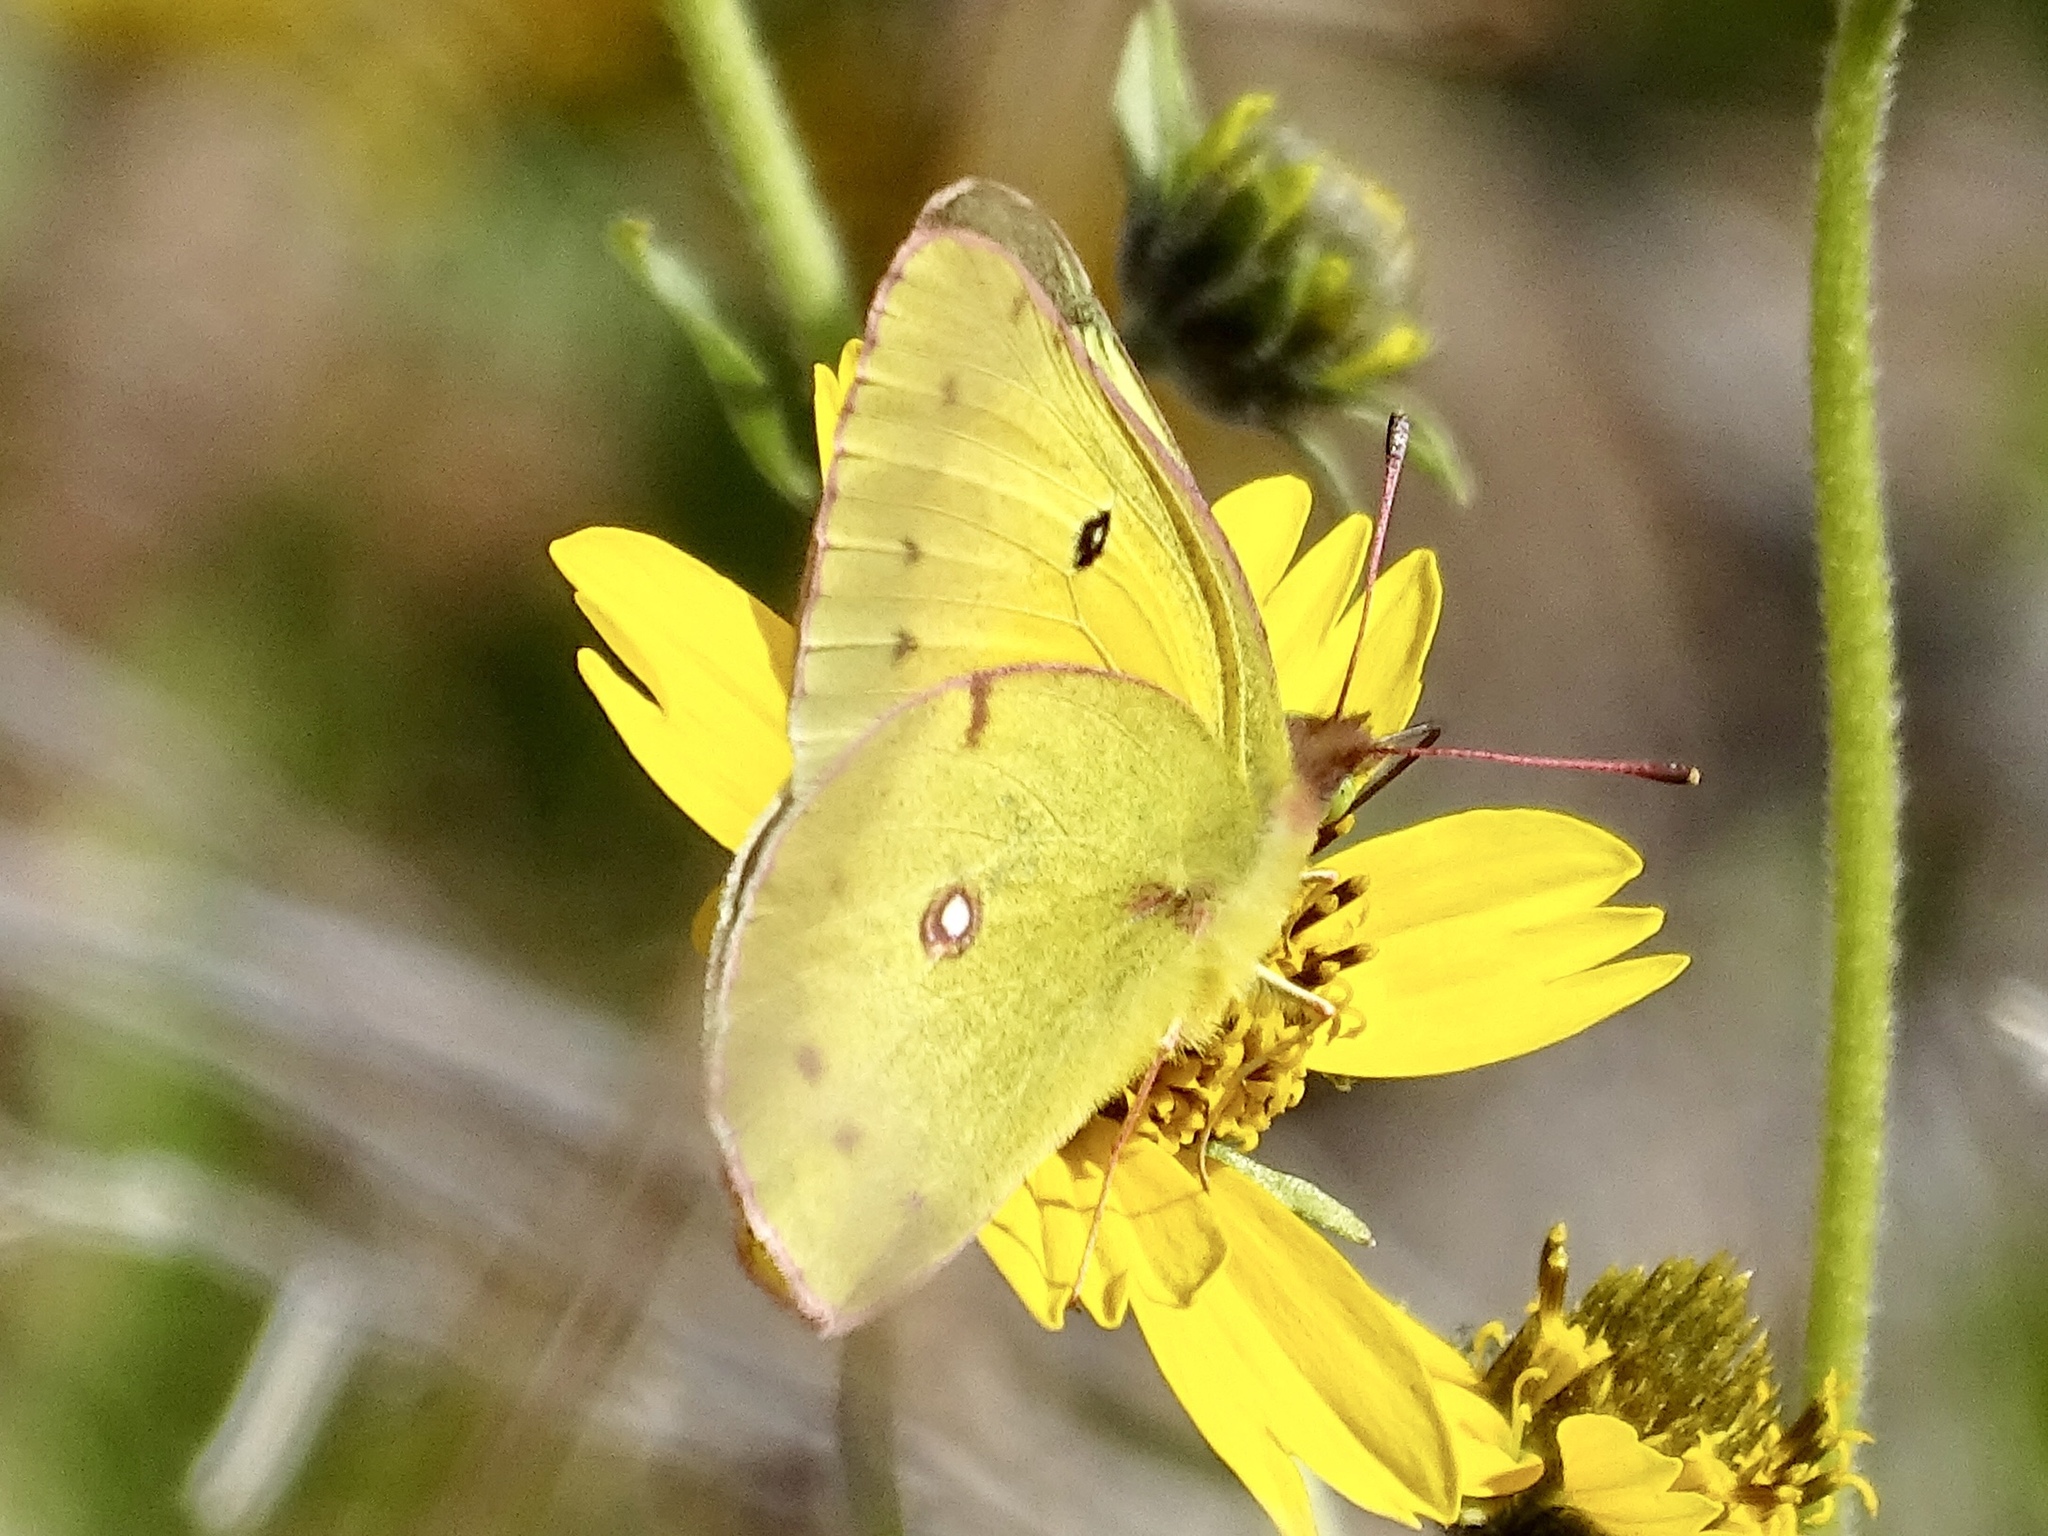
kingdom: Animalia
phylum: Arthropoda
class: Insecta
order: Lepidoptera
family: Pieridae
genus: Colias
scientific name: Colias eurytheme
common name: Alfalfa butterfly
